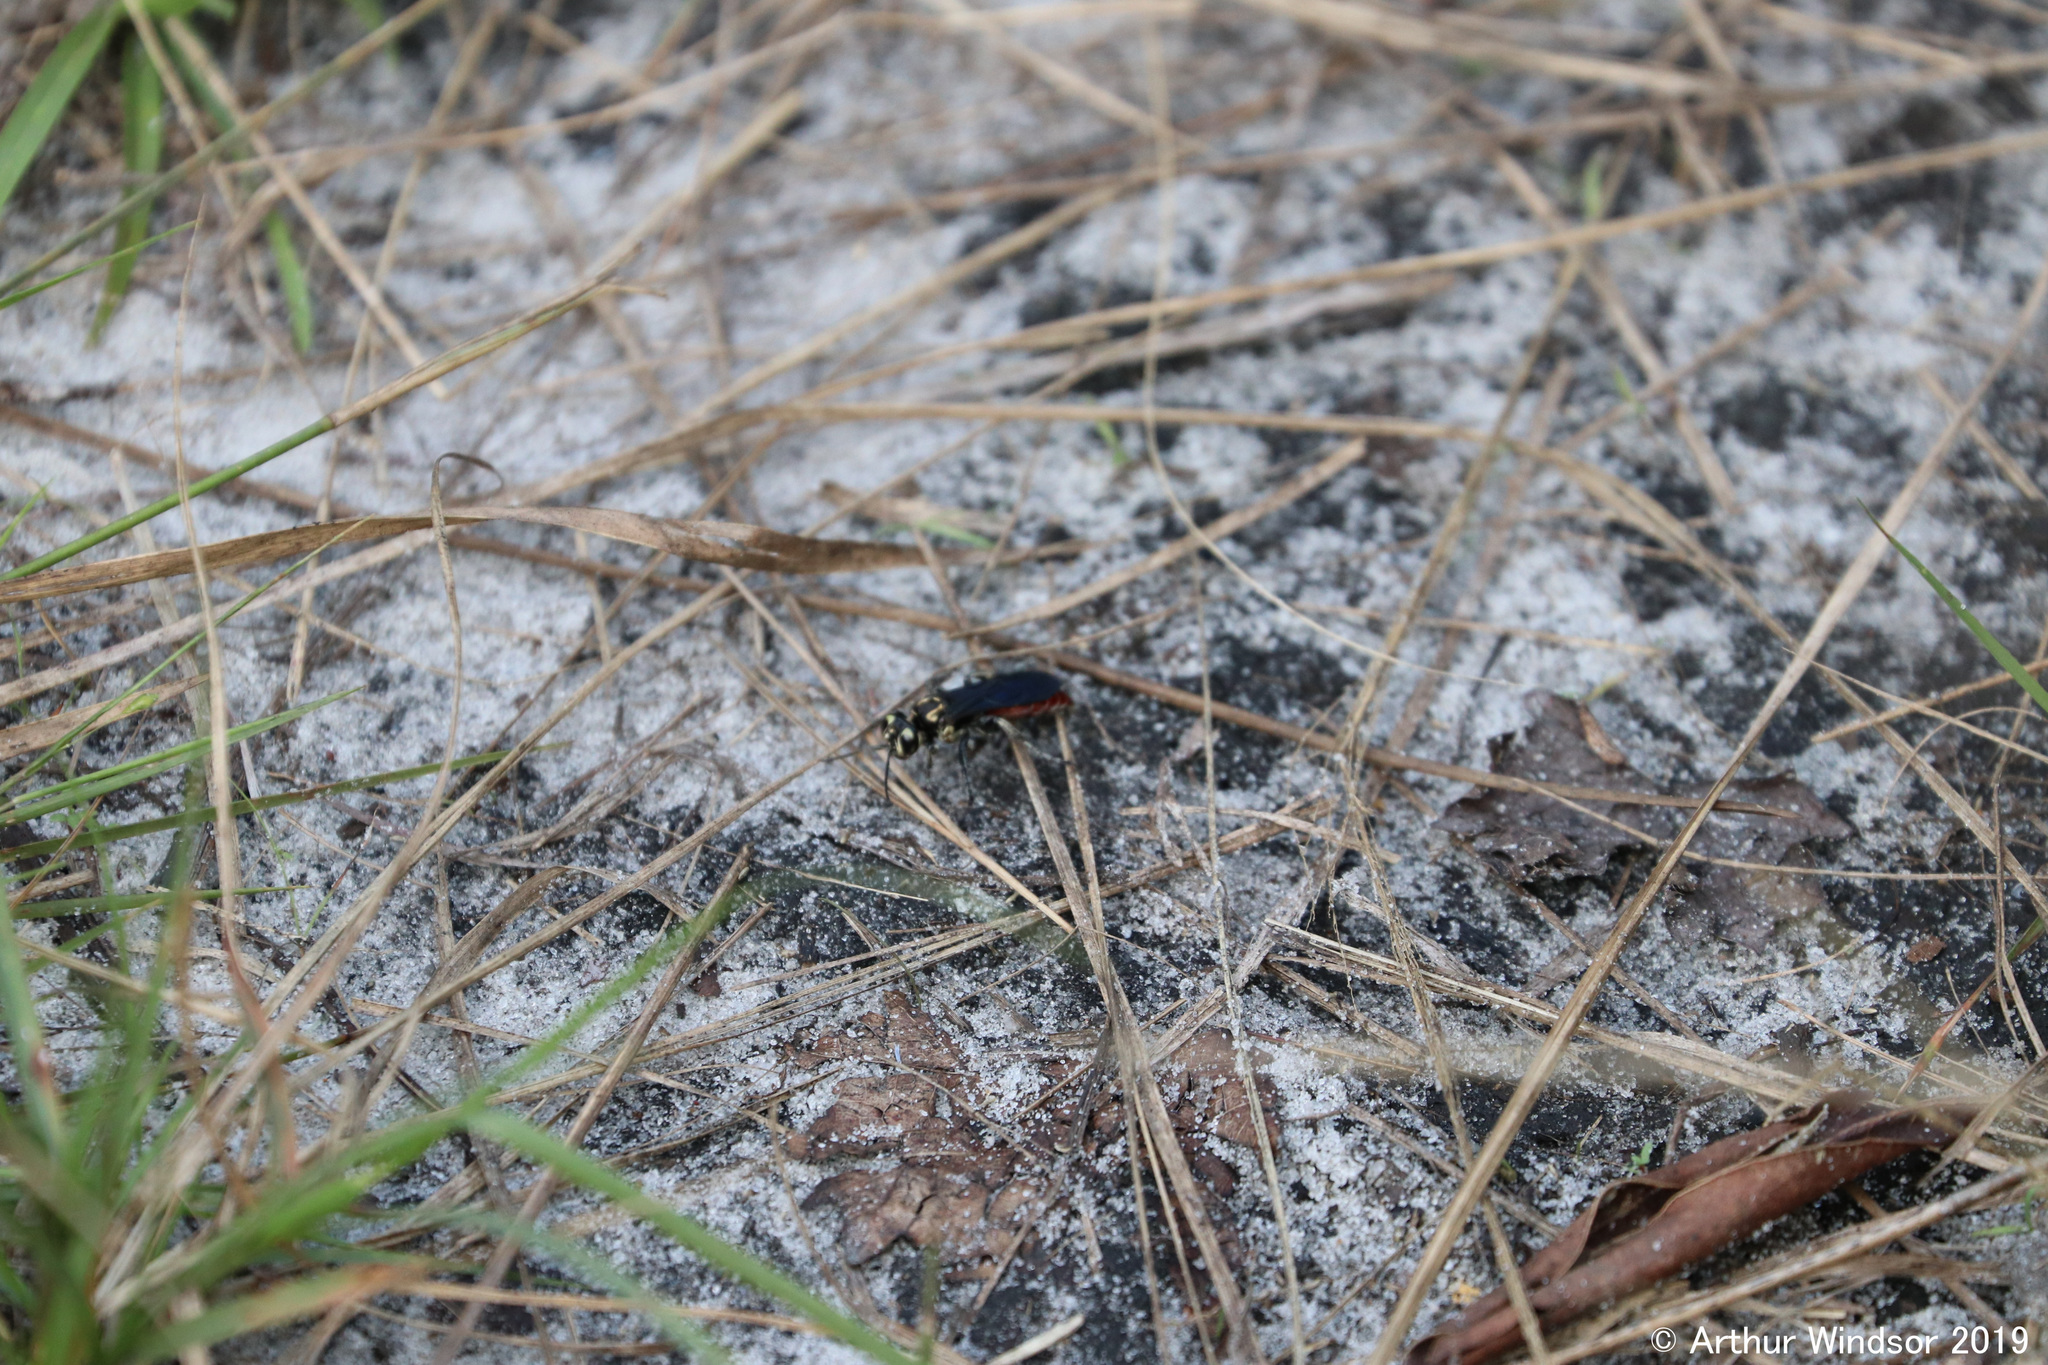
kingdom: Animalia
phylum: Arthropoda
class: Insecta
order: Hymenoptera
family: Crabronidae
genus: Larra
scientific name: Larra bicolor
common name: Wasp
